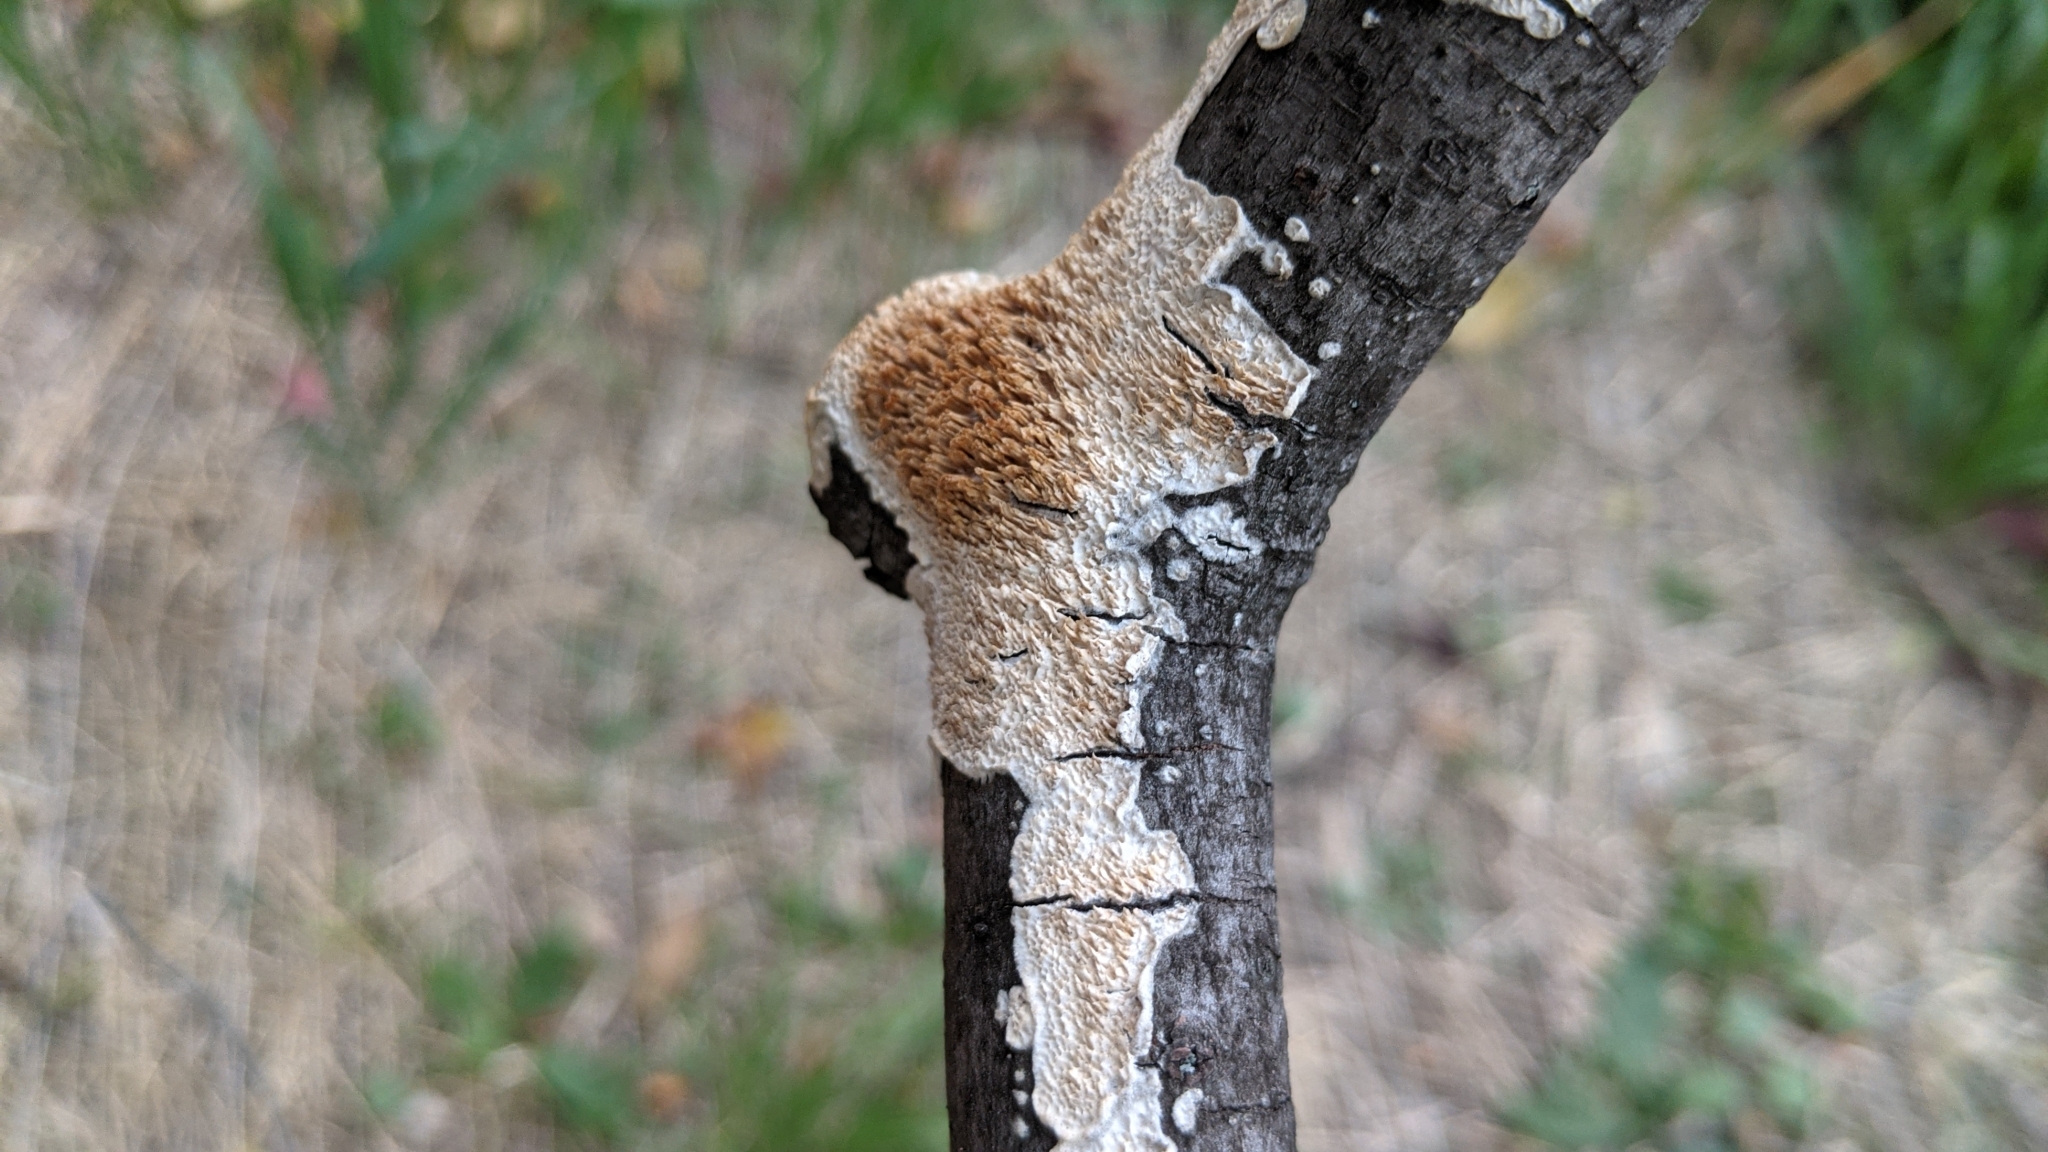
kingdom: Fungi
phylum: Basidiomycota
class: Agaricomycetes
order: Polyporales
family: Irpicaceae
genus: Irpex
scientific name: Irpex lacteus
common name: Milk-white toothed polypore
